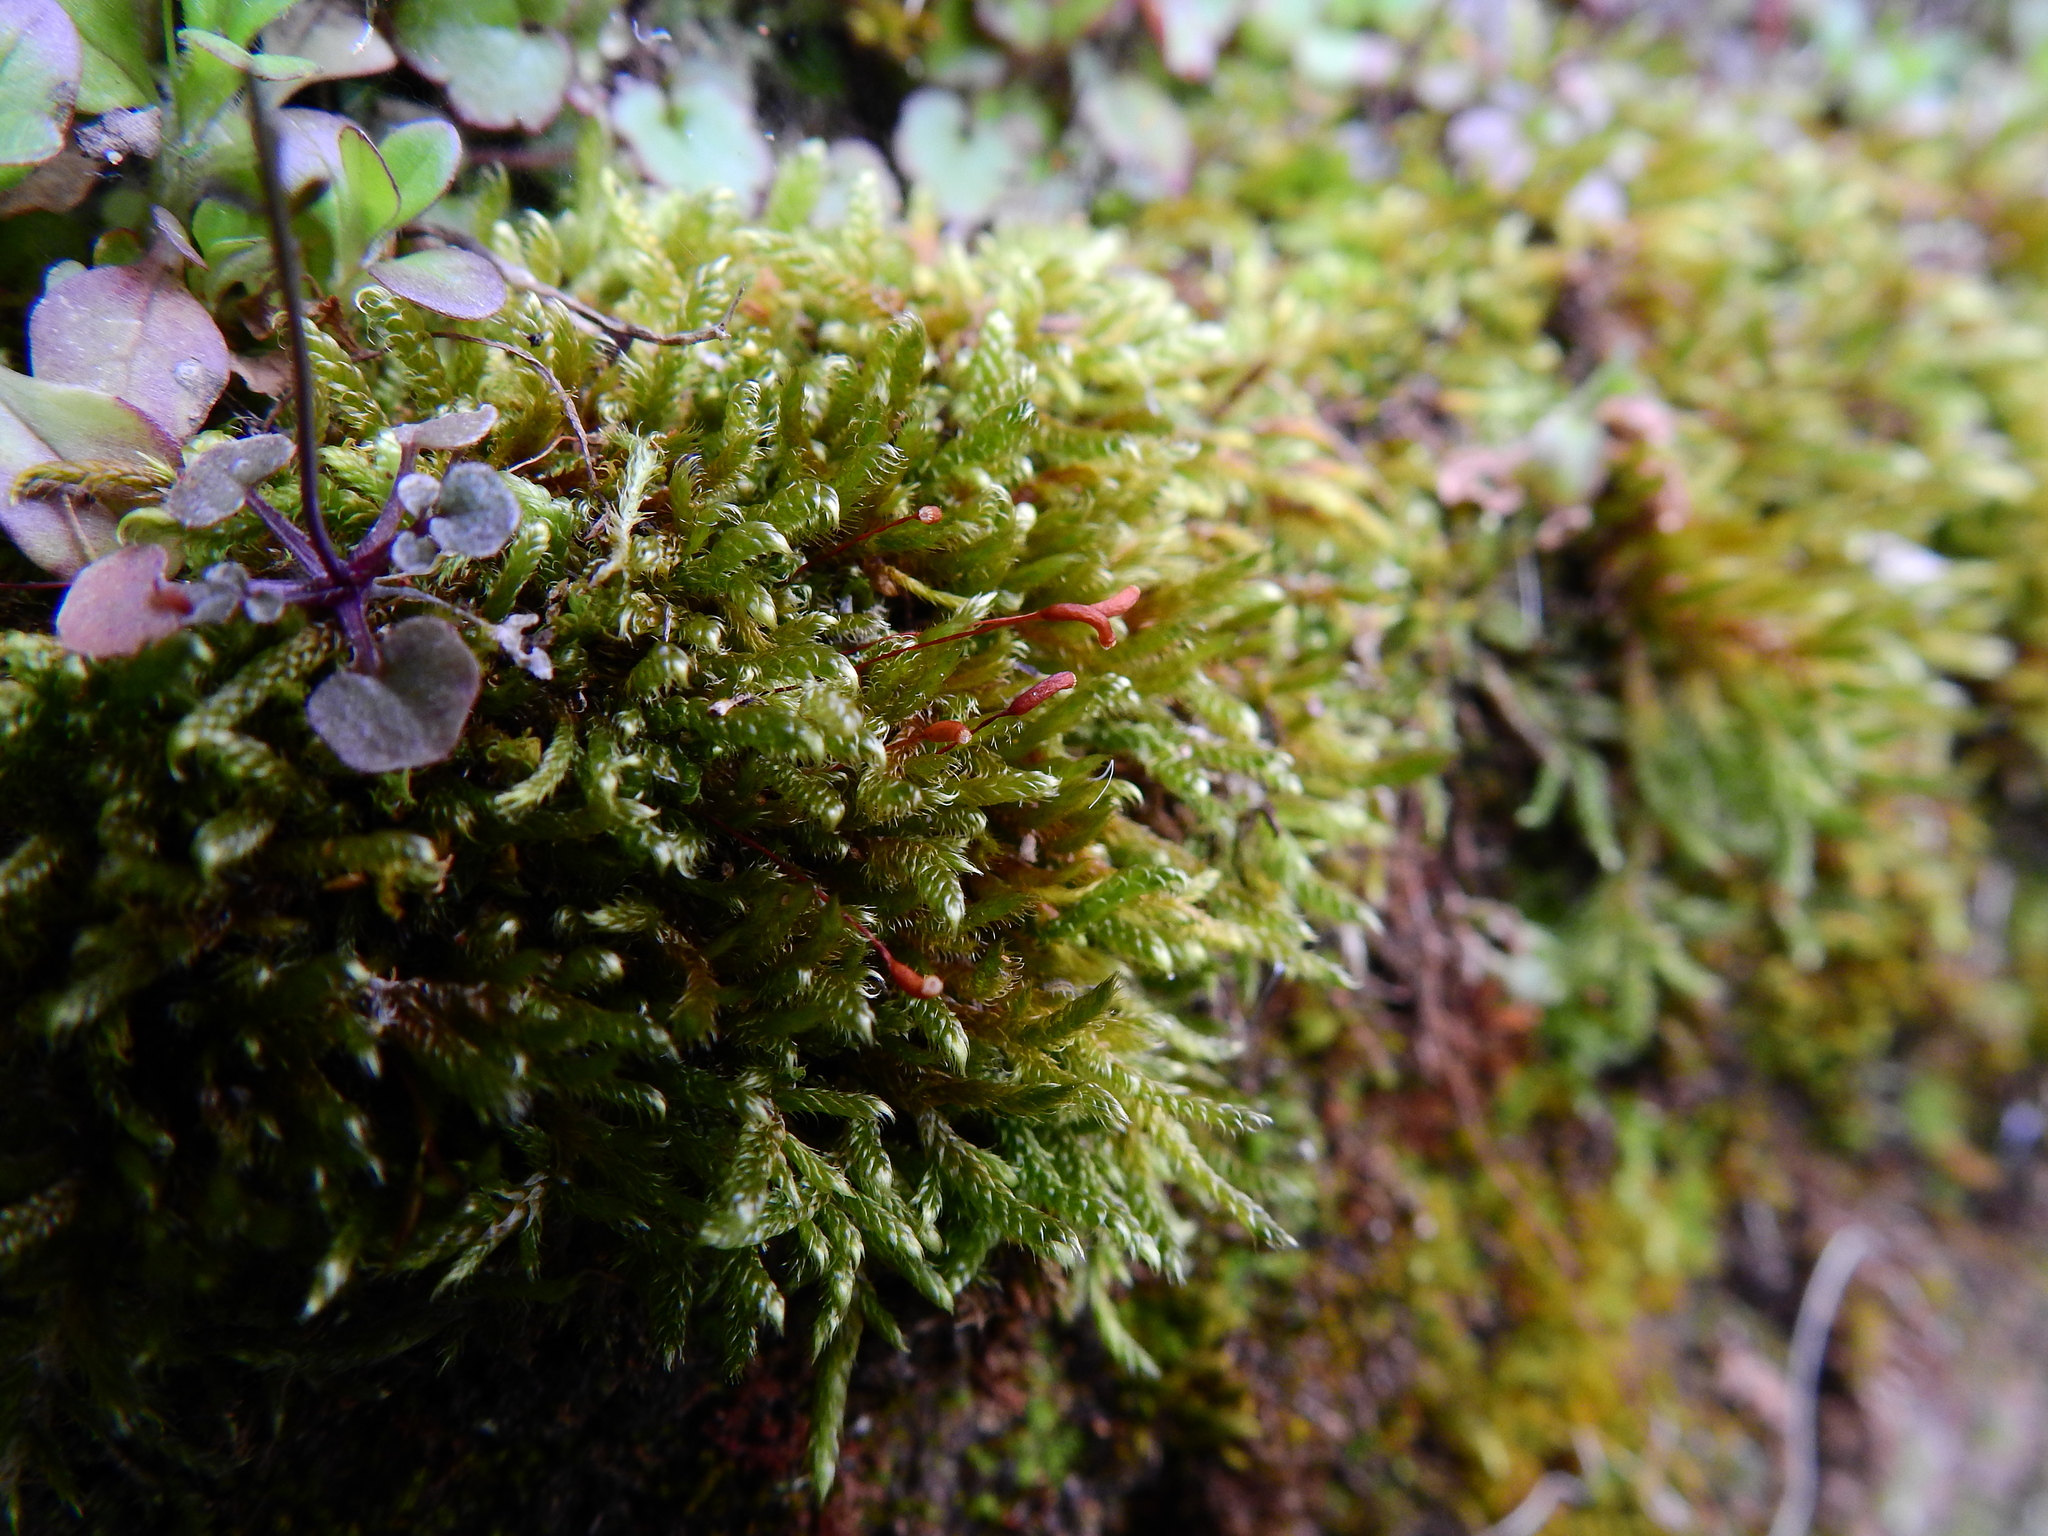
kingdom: Plantae
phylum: Bryophyta
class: Bryopsida
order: Hypnales
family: Hypnaceae
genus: Hypnum
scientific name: Hypnum cupressiforme
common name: Cypress-leaved plait-moss
